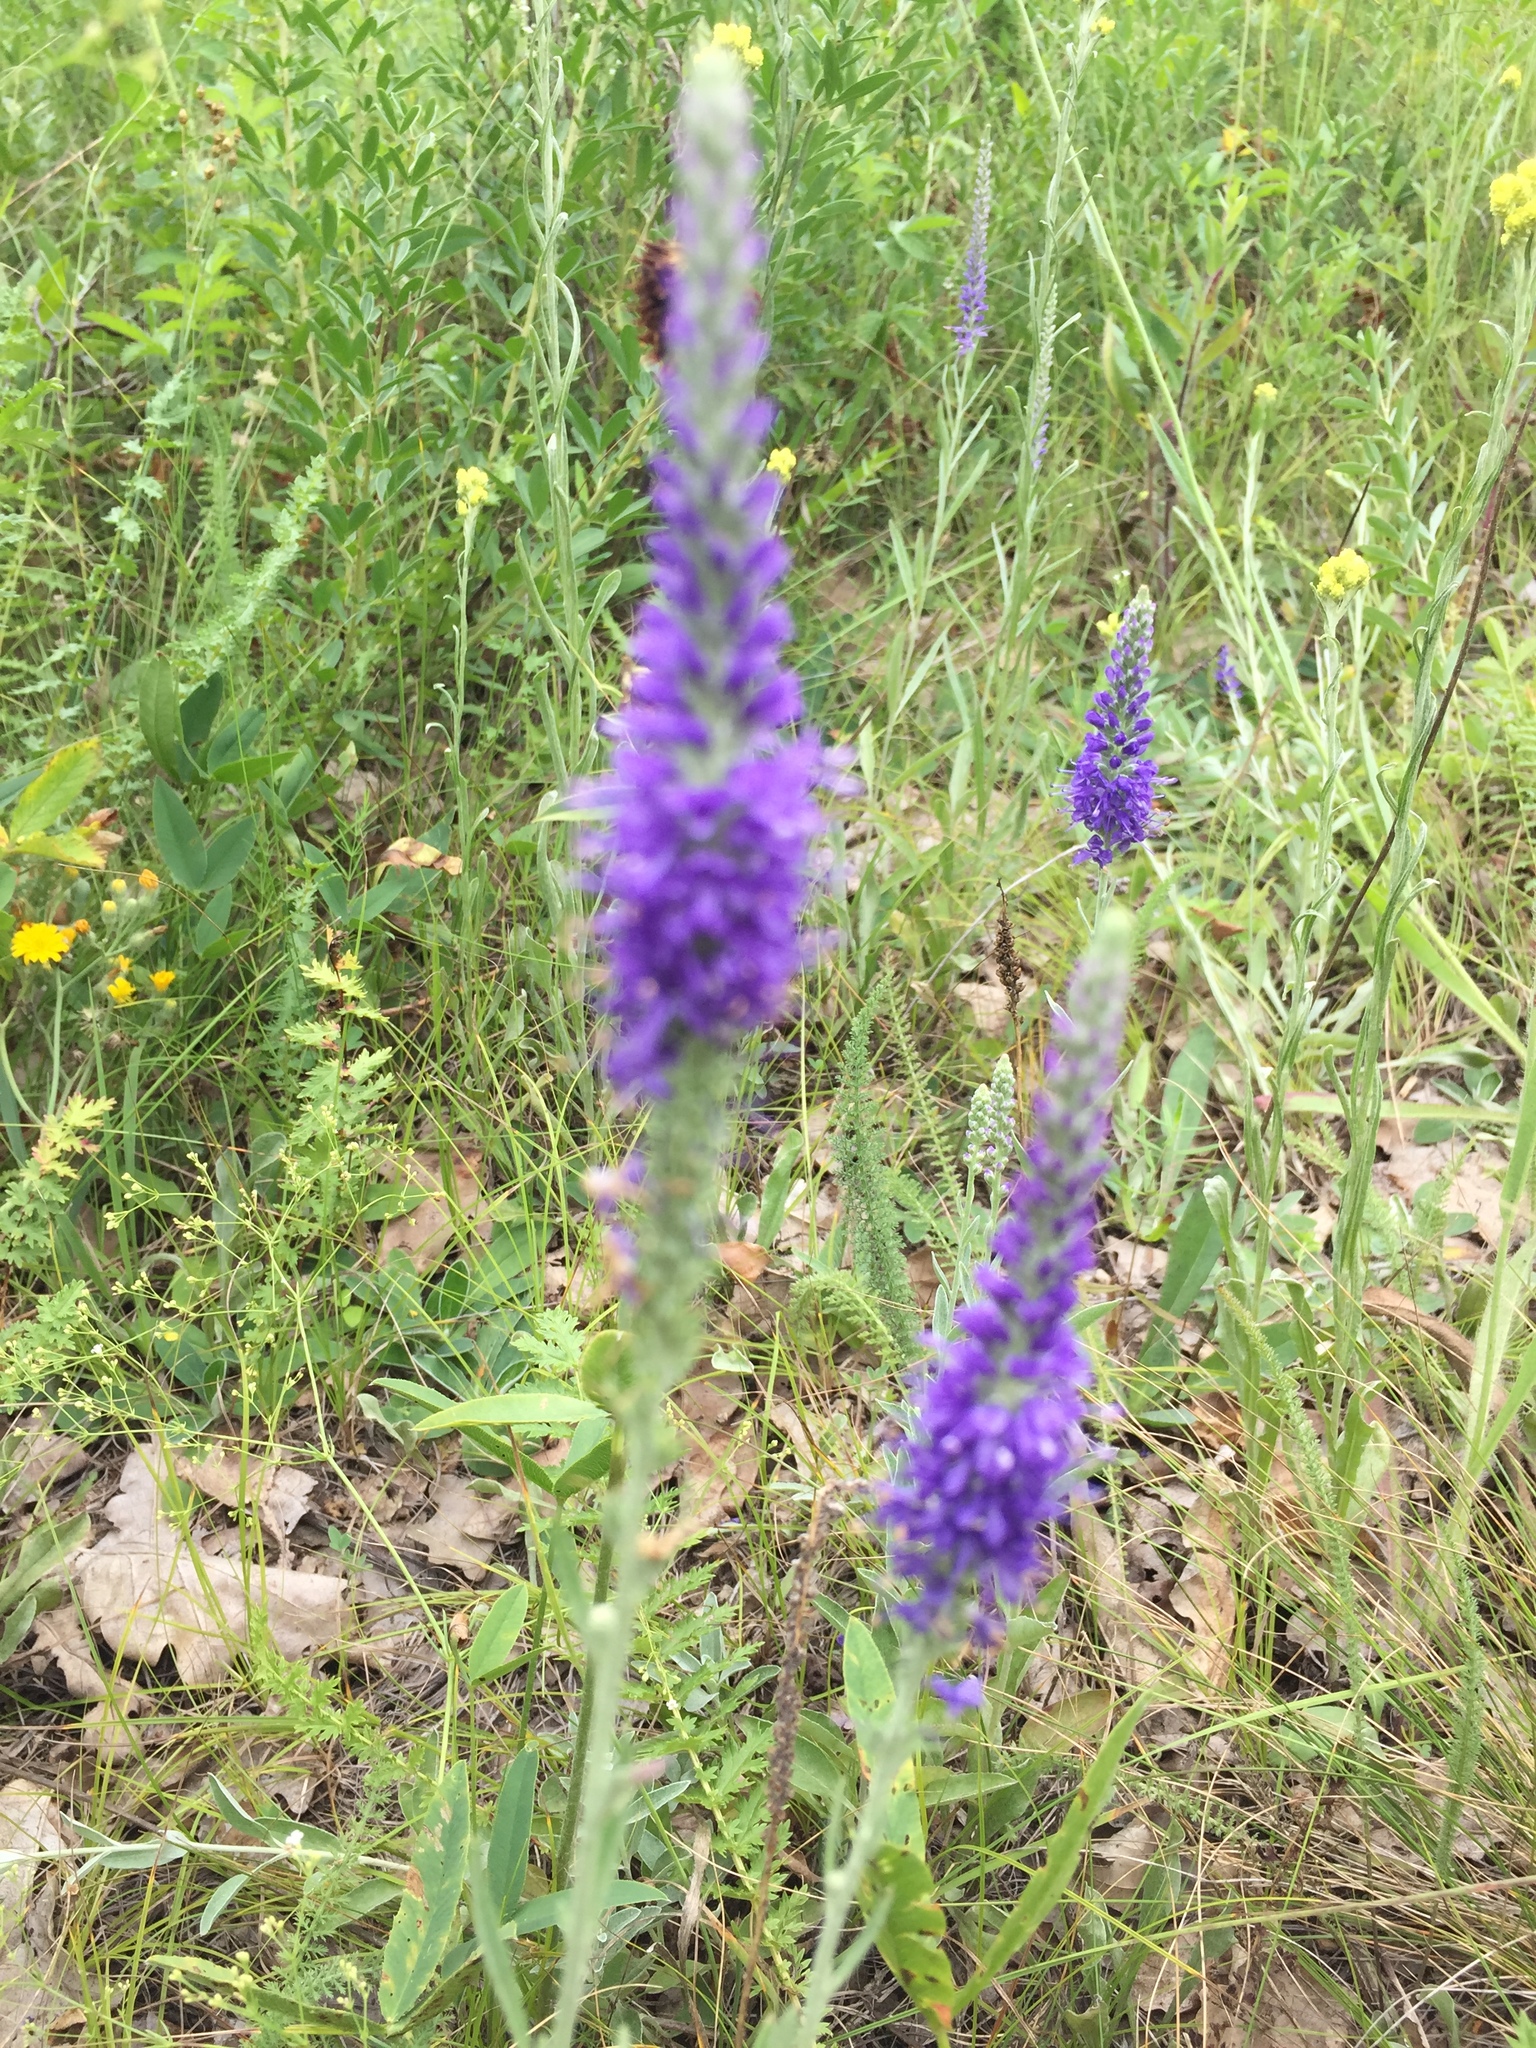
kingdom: Plantae
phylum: Tracheophyta
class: Magnoliopsida
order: Lamiales
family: Plantaginaceae
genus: Veronica
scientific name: Veronica incana
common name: Silver speedwell
